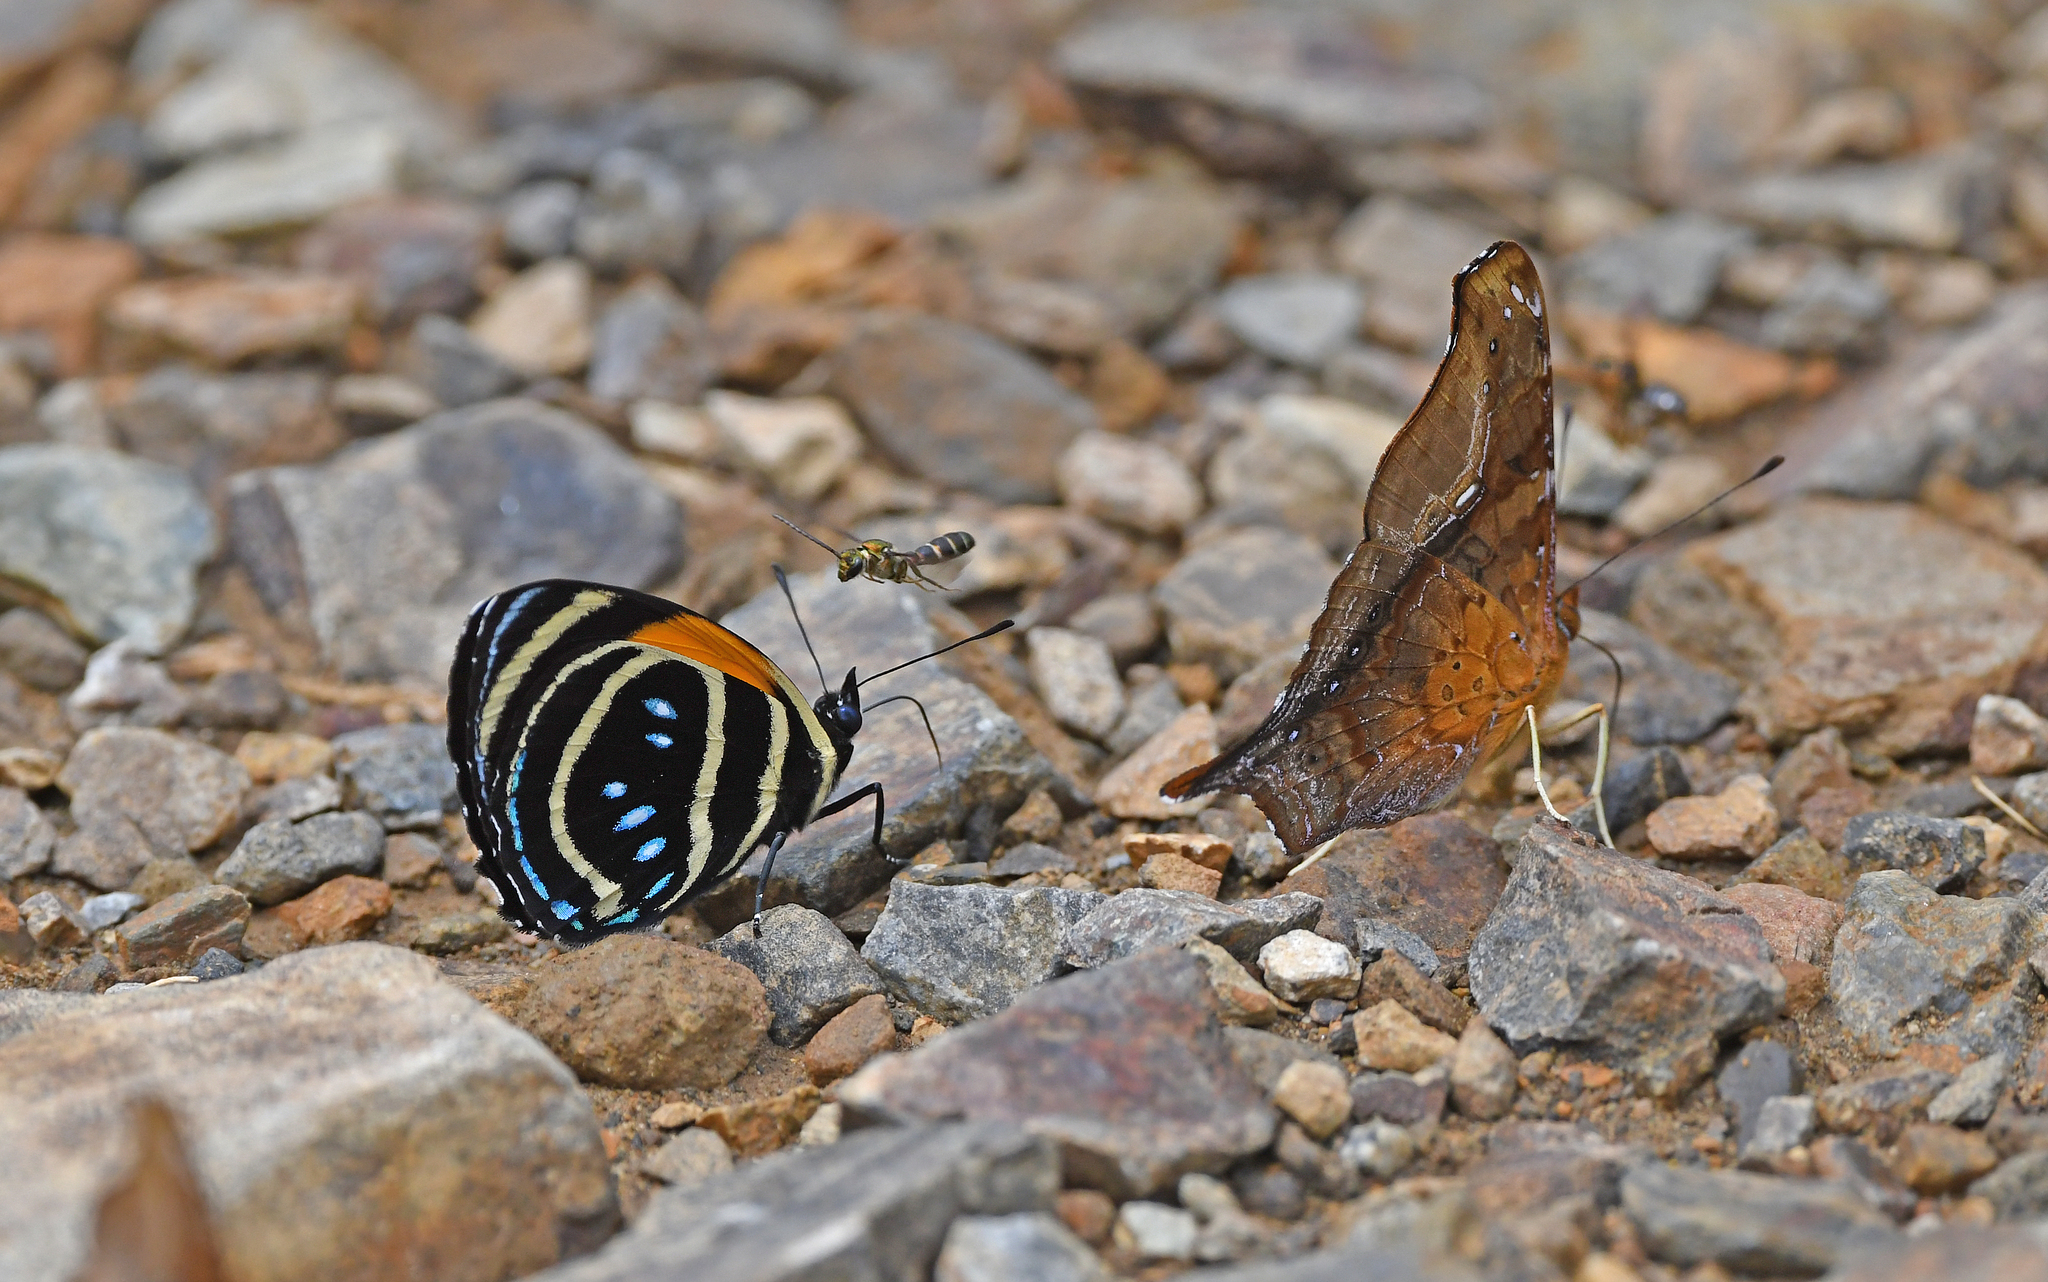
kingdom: Animalia
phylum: Arthropoda
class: Insecta
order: Lepidoptera
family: Nymphalidae
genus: Catagramma
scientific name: Catagramma Callicore lyca
